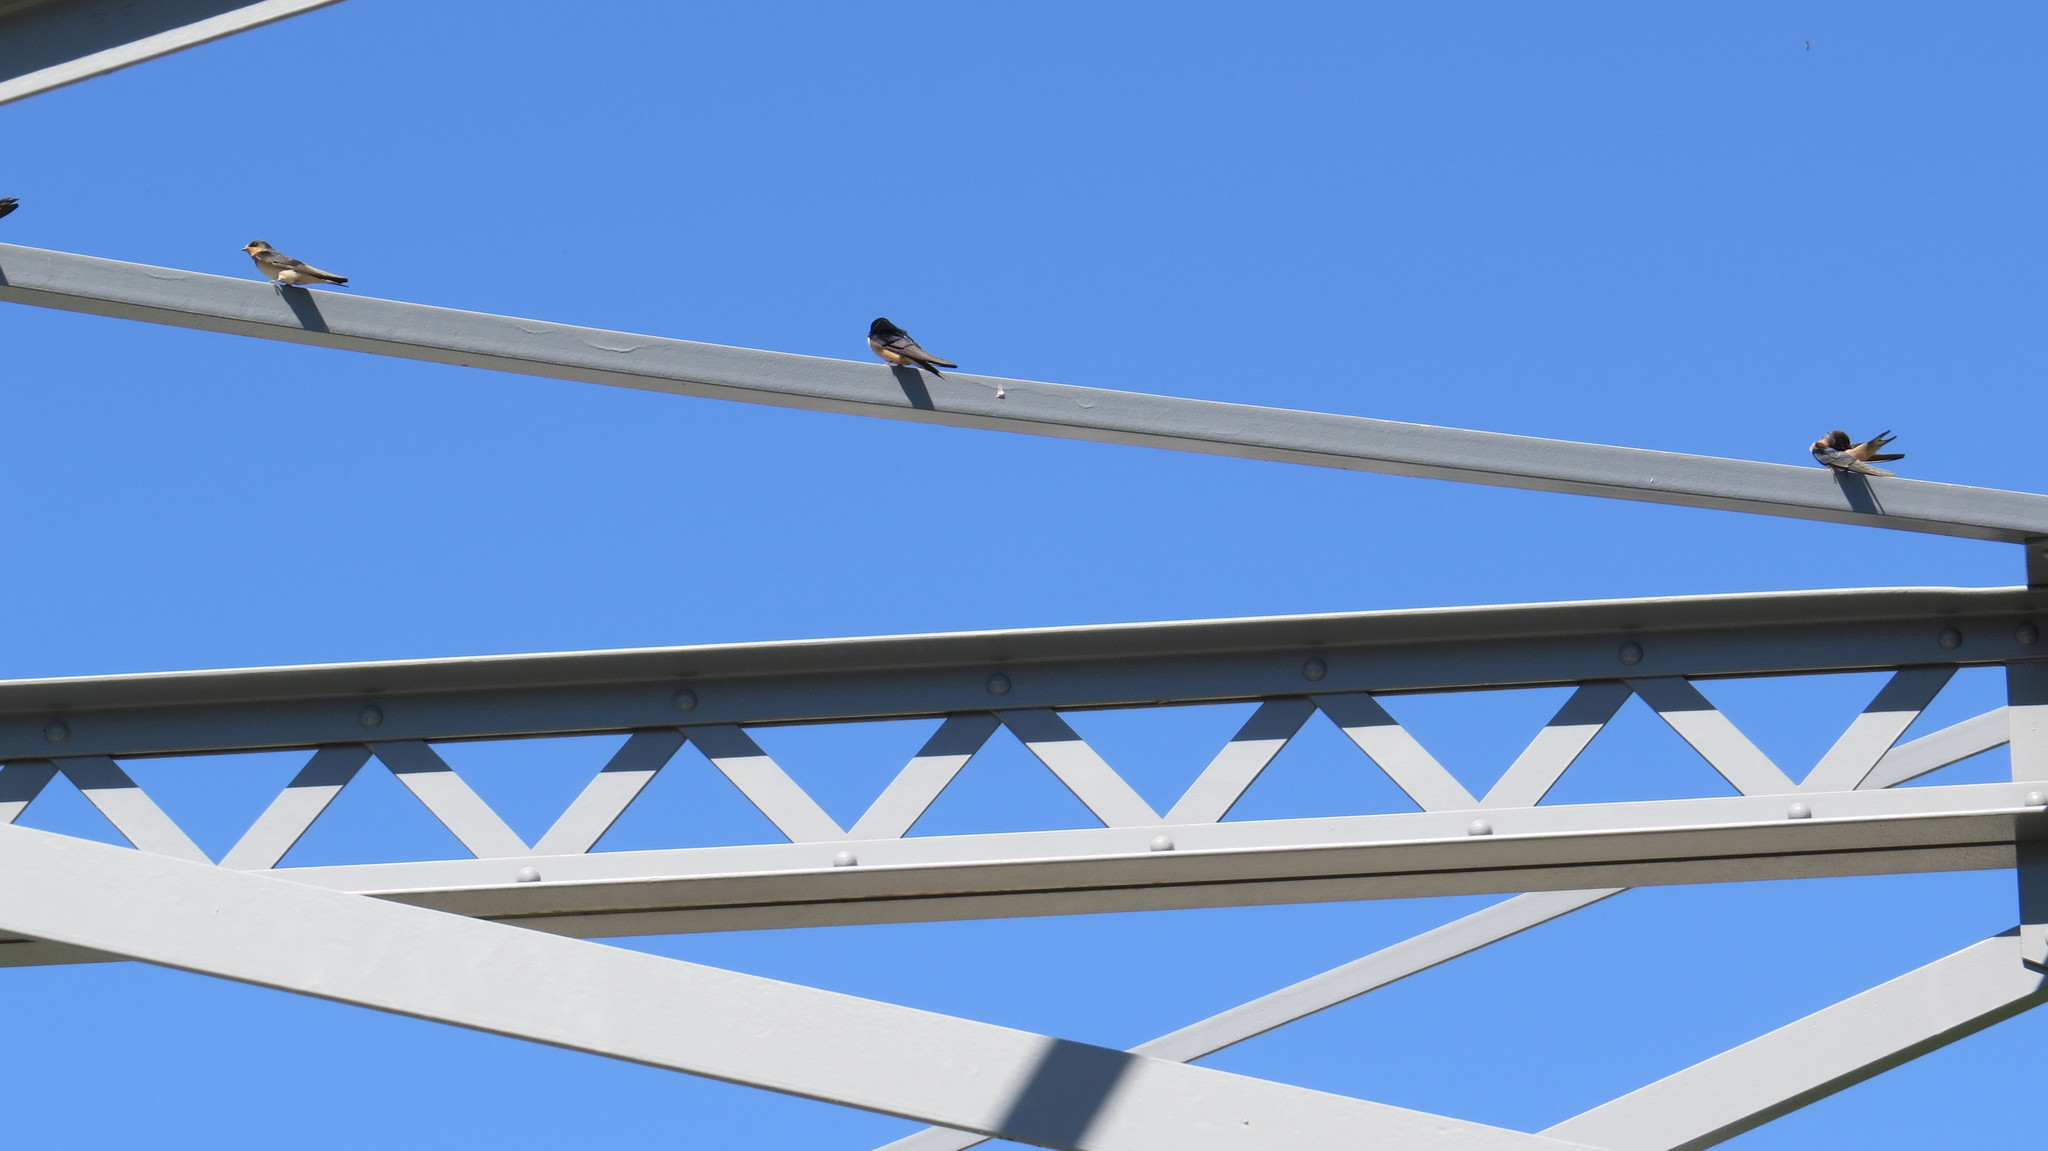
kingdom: Animalia
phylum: Chordata
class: Aves
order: Passeriformes
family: Hirundinidae
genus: Hirundo
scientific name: Hirundo rustica
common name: Barn swallow
